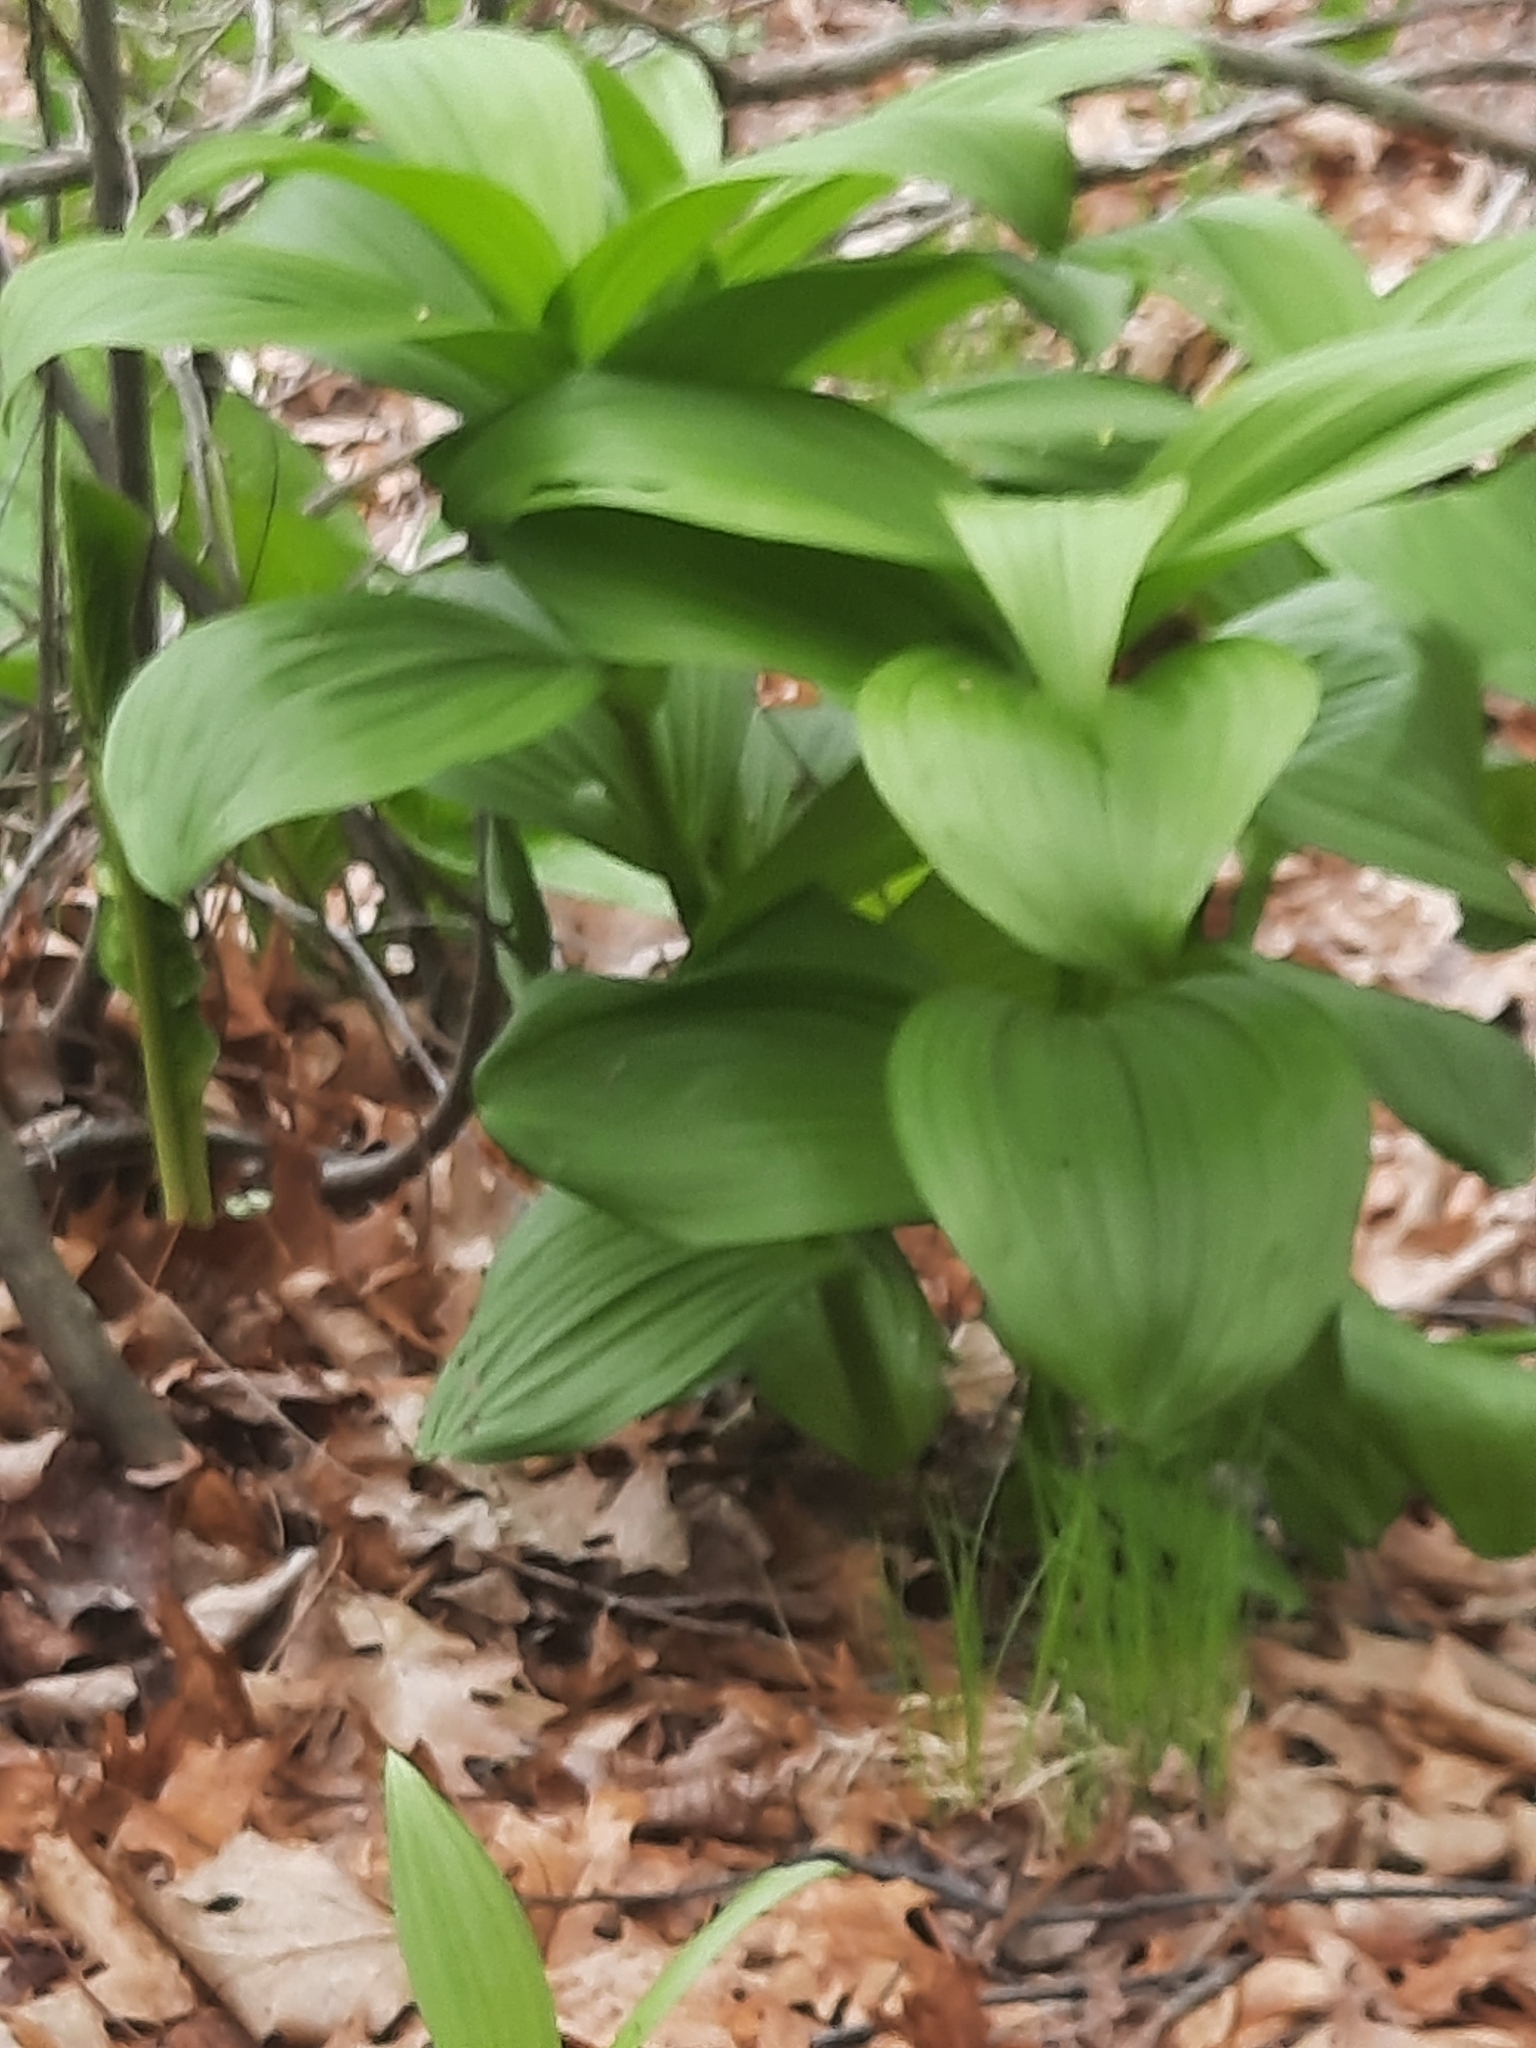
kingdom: Plantae
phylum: Tracheophyta
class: Liliopsida
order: Liliales
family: Melanthiaceae
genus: Veratrum
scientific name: Veratrum viride
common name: American false hellebore
